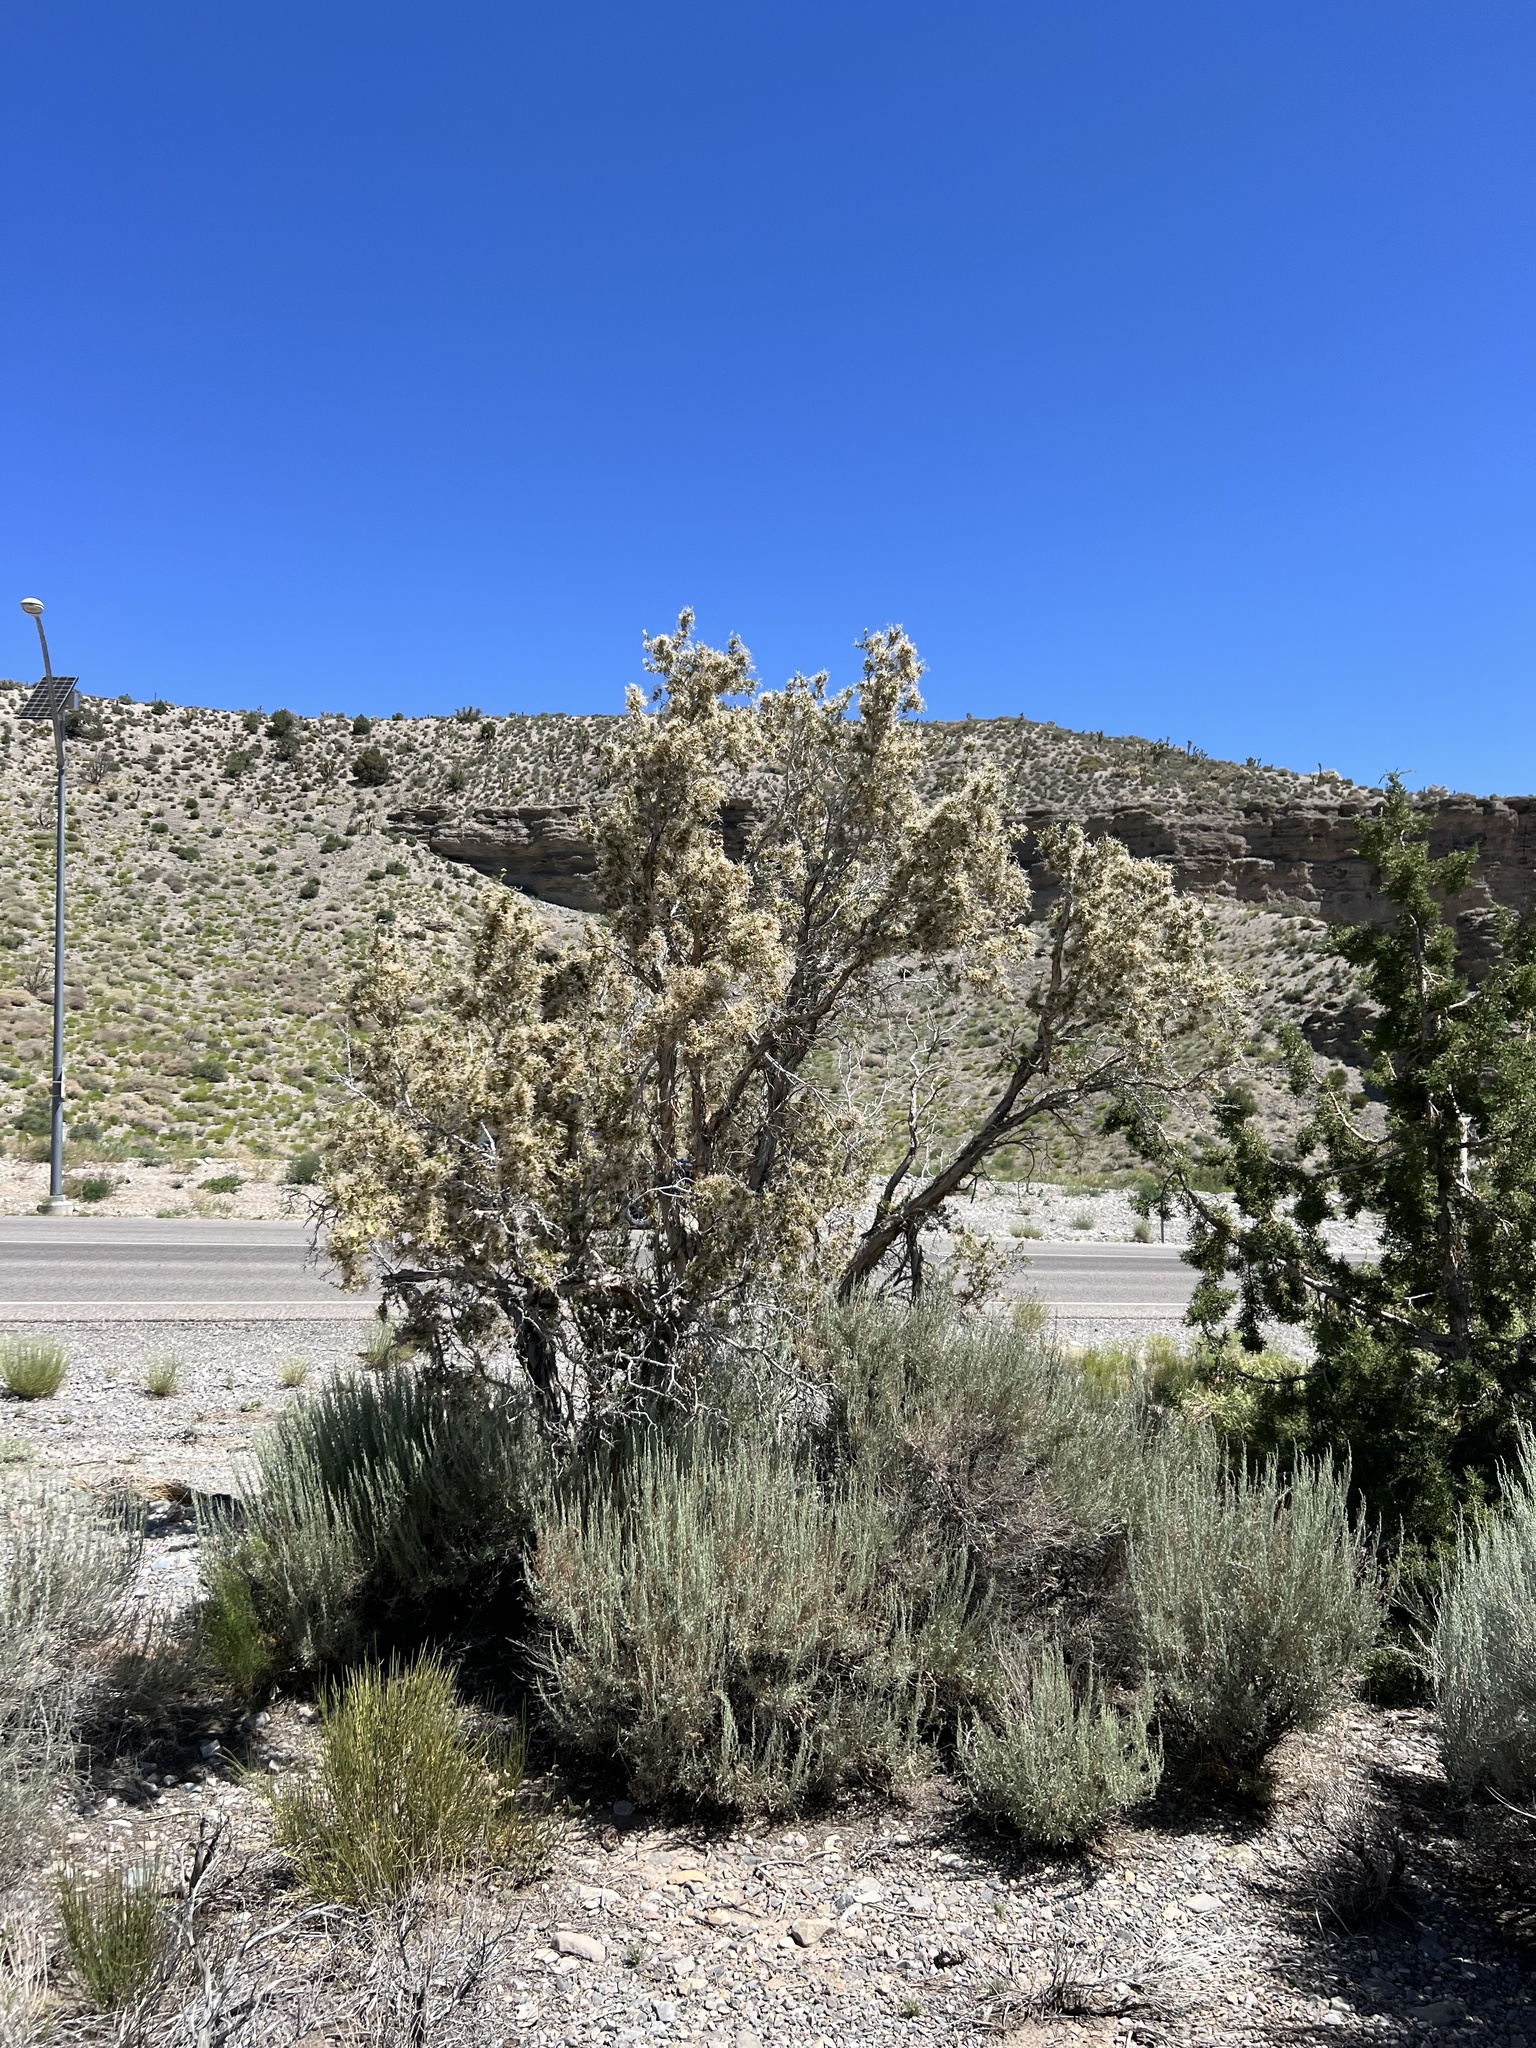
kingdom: Plantae
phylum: Tracheophyta
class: Magnoliopsida
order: Rosales
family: Rosaceae
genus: Purshia
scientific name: Purshia stansburiana
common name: Stansbury's cliffrose
